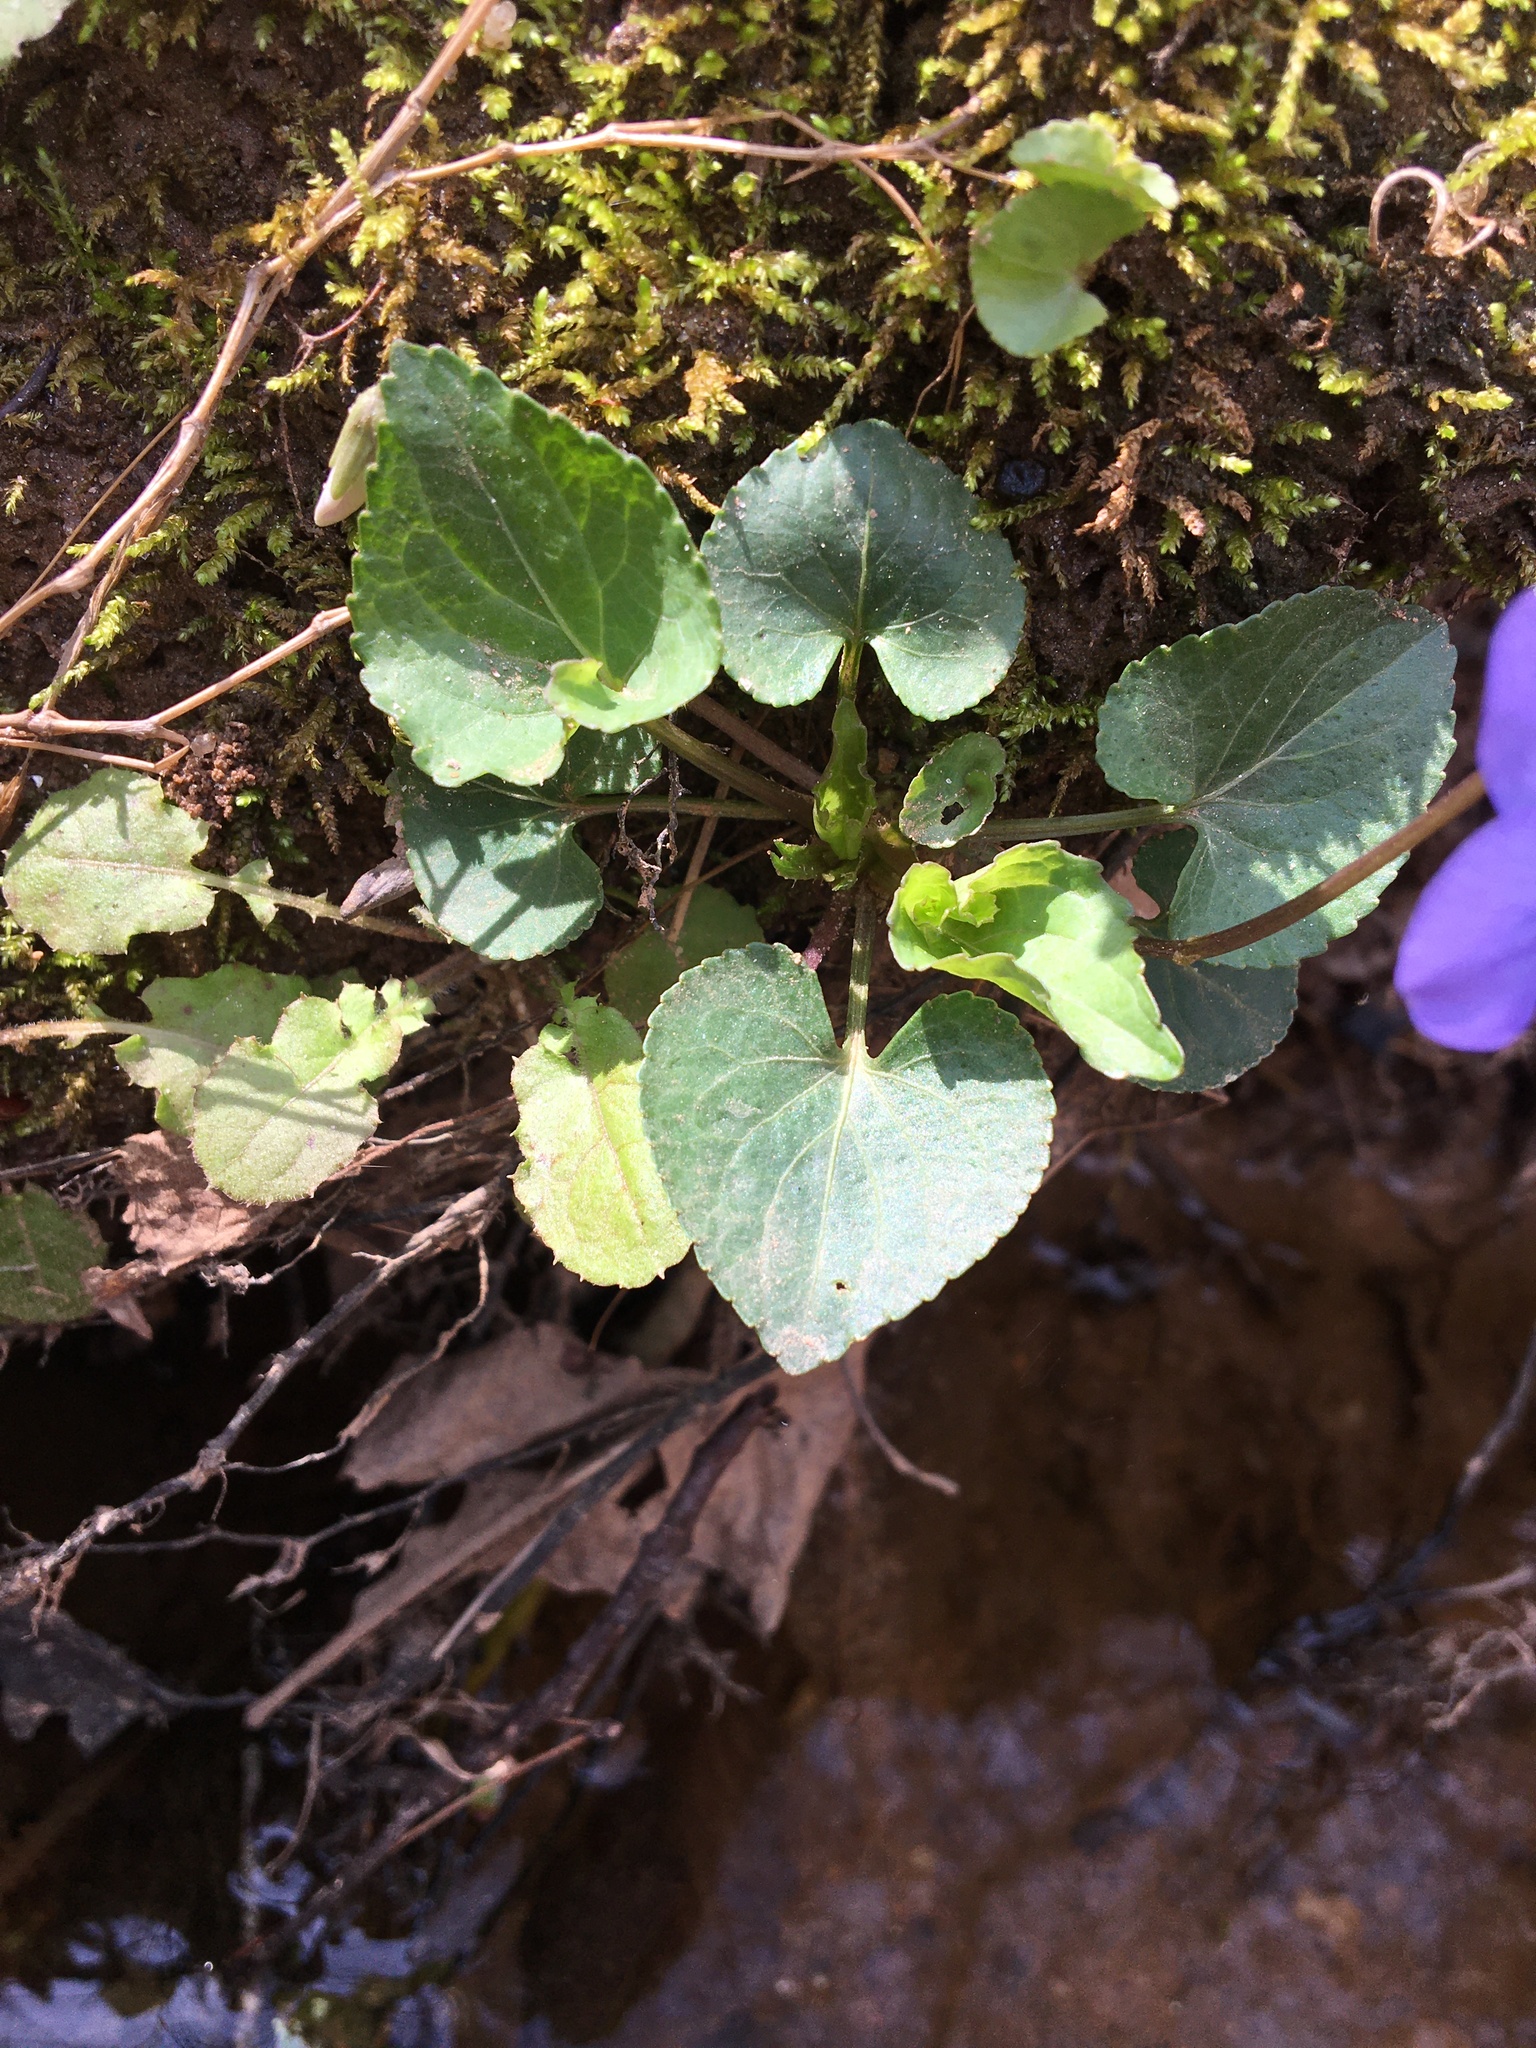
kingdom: Plantae
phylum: Tracheophyta
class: Magnoliopsida
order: Malpighiales
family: Violaceae
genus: Viola
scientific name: Viola sororia
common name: Dooryard violet
